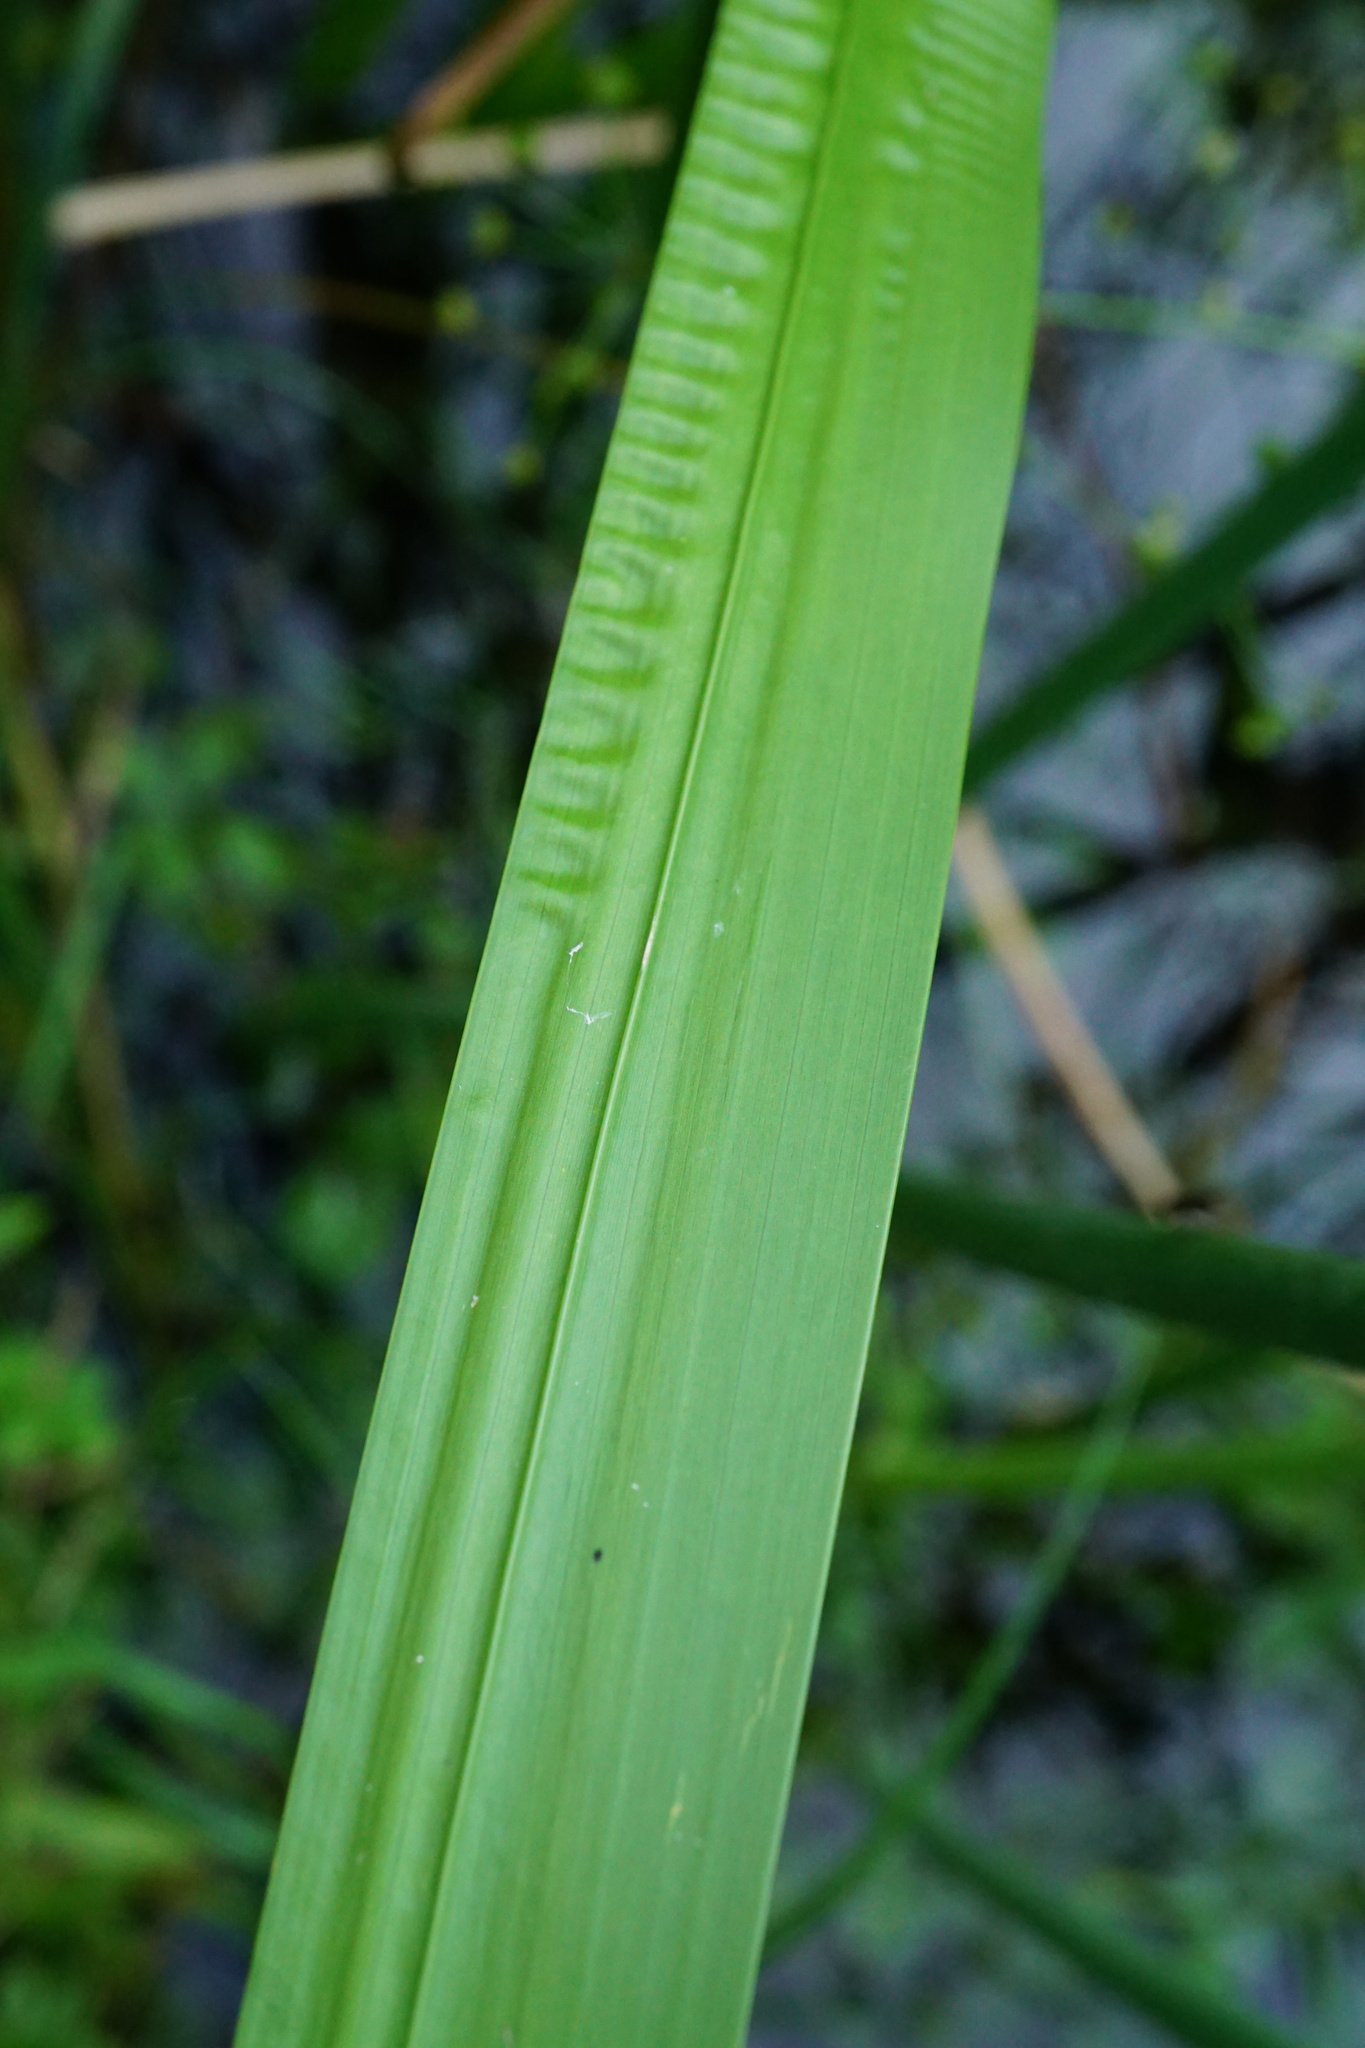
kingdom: Plantae
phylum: Tracheophyta
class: Liliopsida
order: Acorales
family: Acoraceae
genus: Acorus
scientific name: Acorus calamus
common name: Sweet-flag
